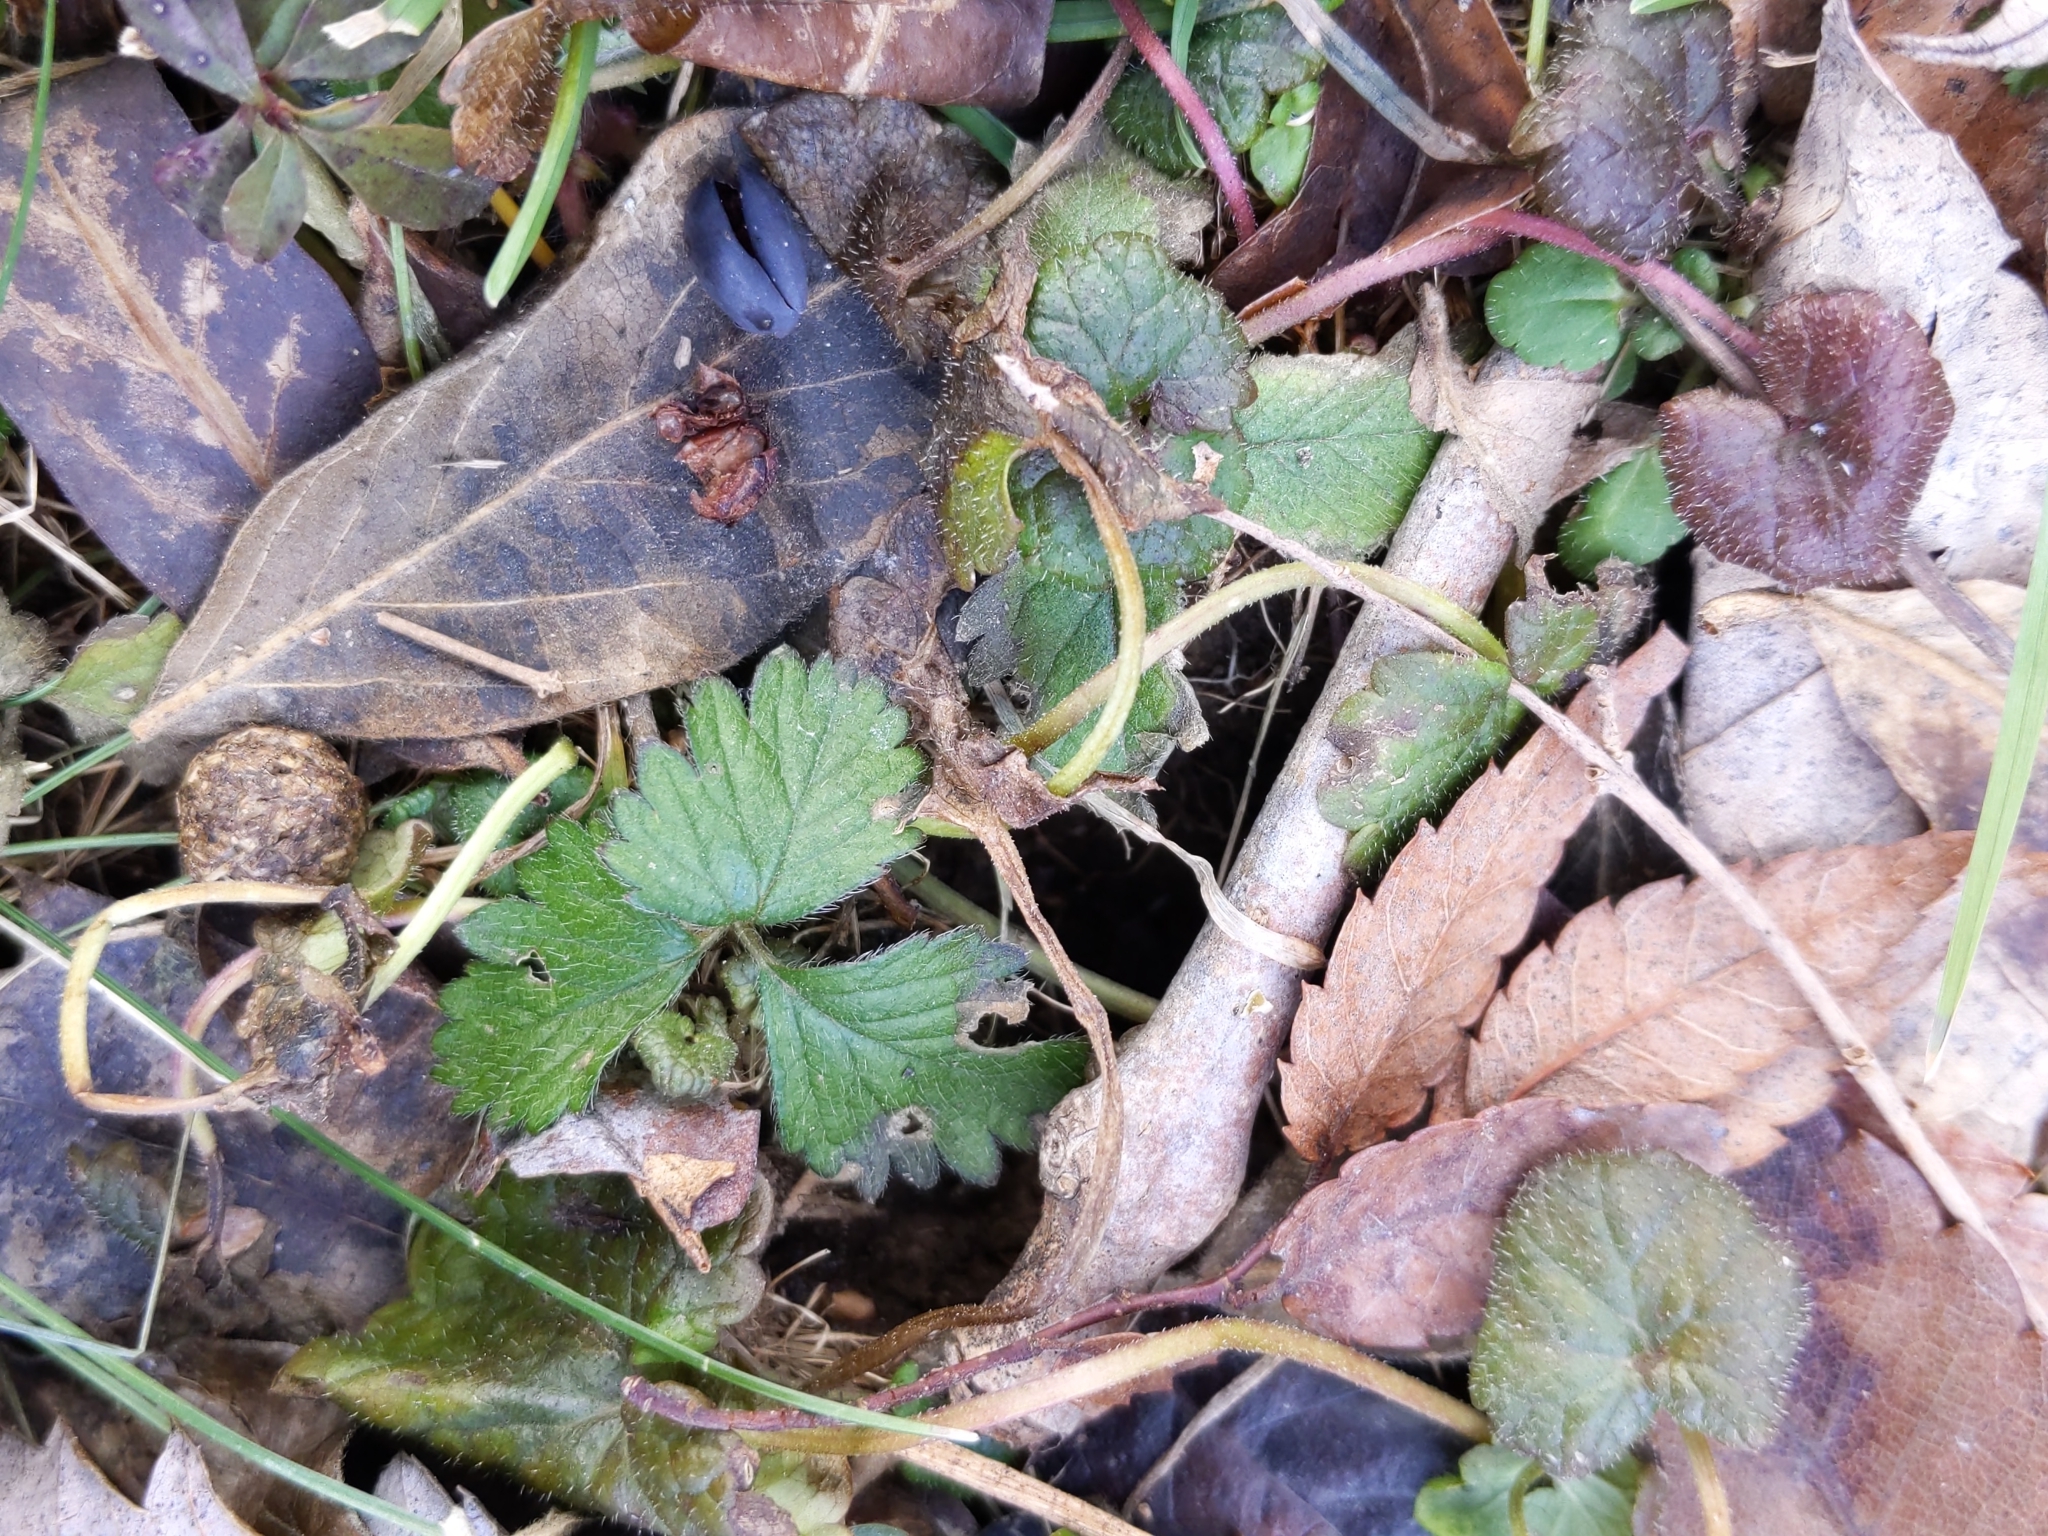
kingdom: Plantae
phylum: Tracheophyta
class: Magnoliopsida
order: Rosales
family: Rosaceae
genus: Potentilla
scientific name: Potentilla indica
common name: Yellow-flowered strawberry
